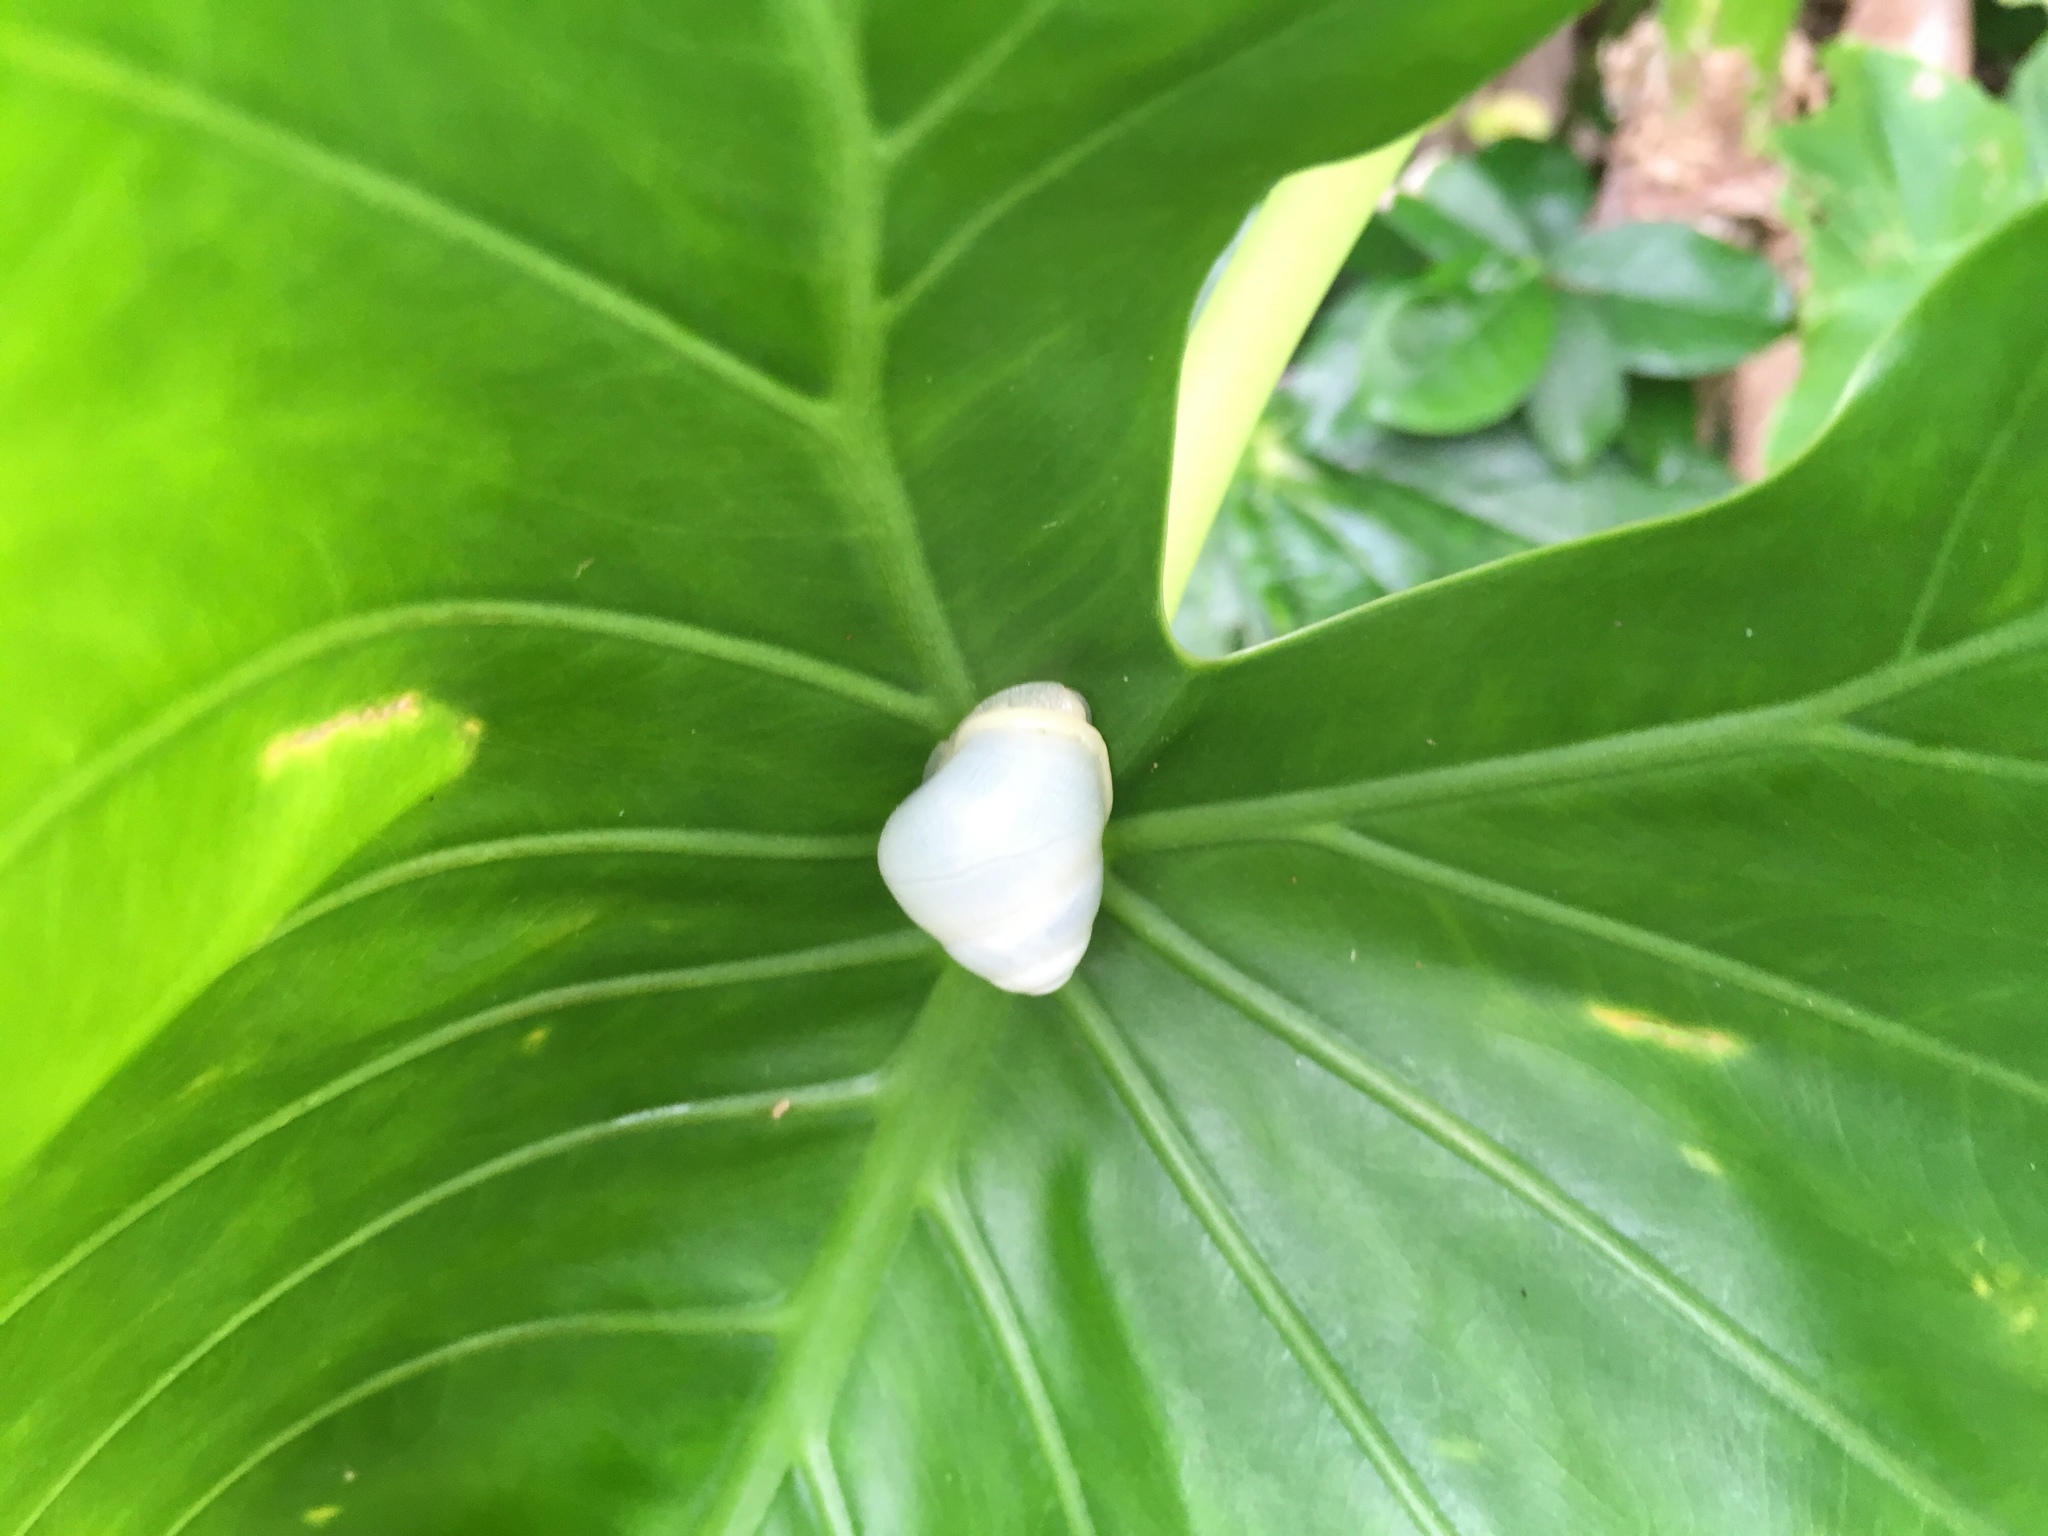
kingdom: Animalia
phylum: Mollusca
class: Gastropoda
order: Stylommatophora
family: Camaenidae
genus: Helicostyla
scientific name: Helicostyla okadai
